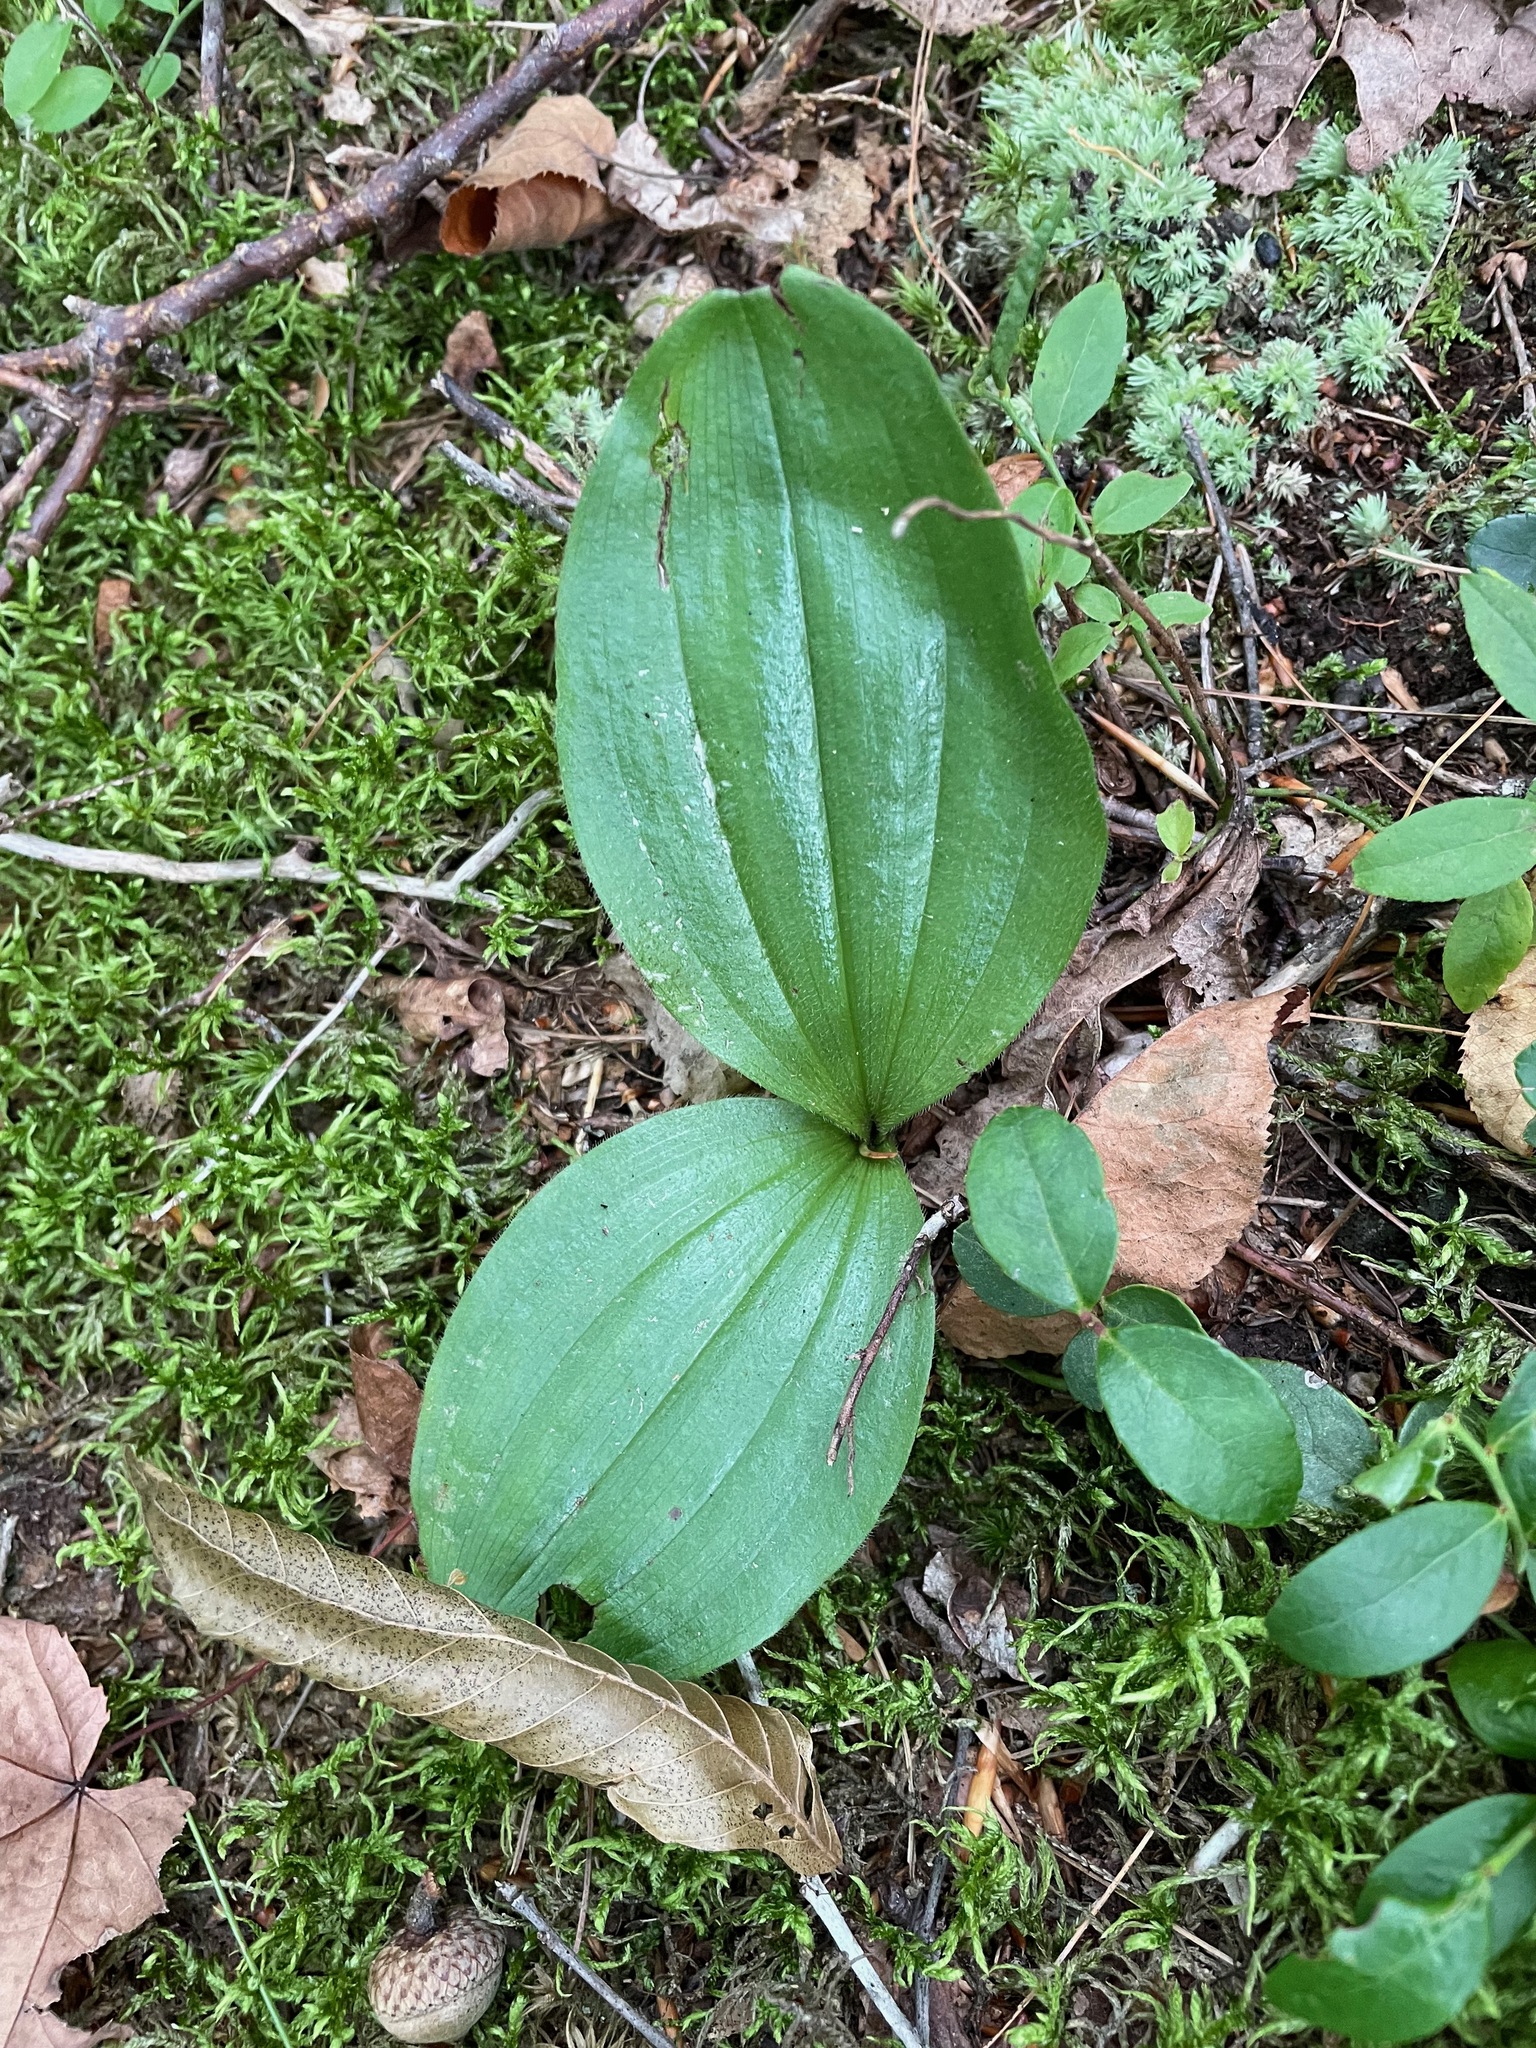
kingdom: Plantae
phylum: Tracheophyta
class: Liliopsida
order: Asparagales
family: Orchidaceae
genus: Cypripedium
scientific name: Cypripedium acaule
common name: Pink lady's-slipper
